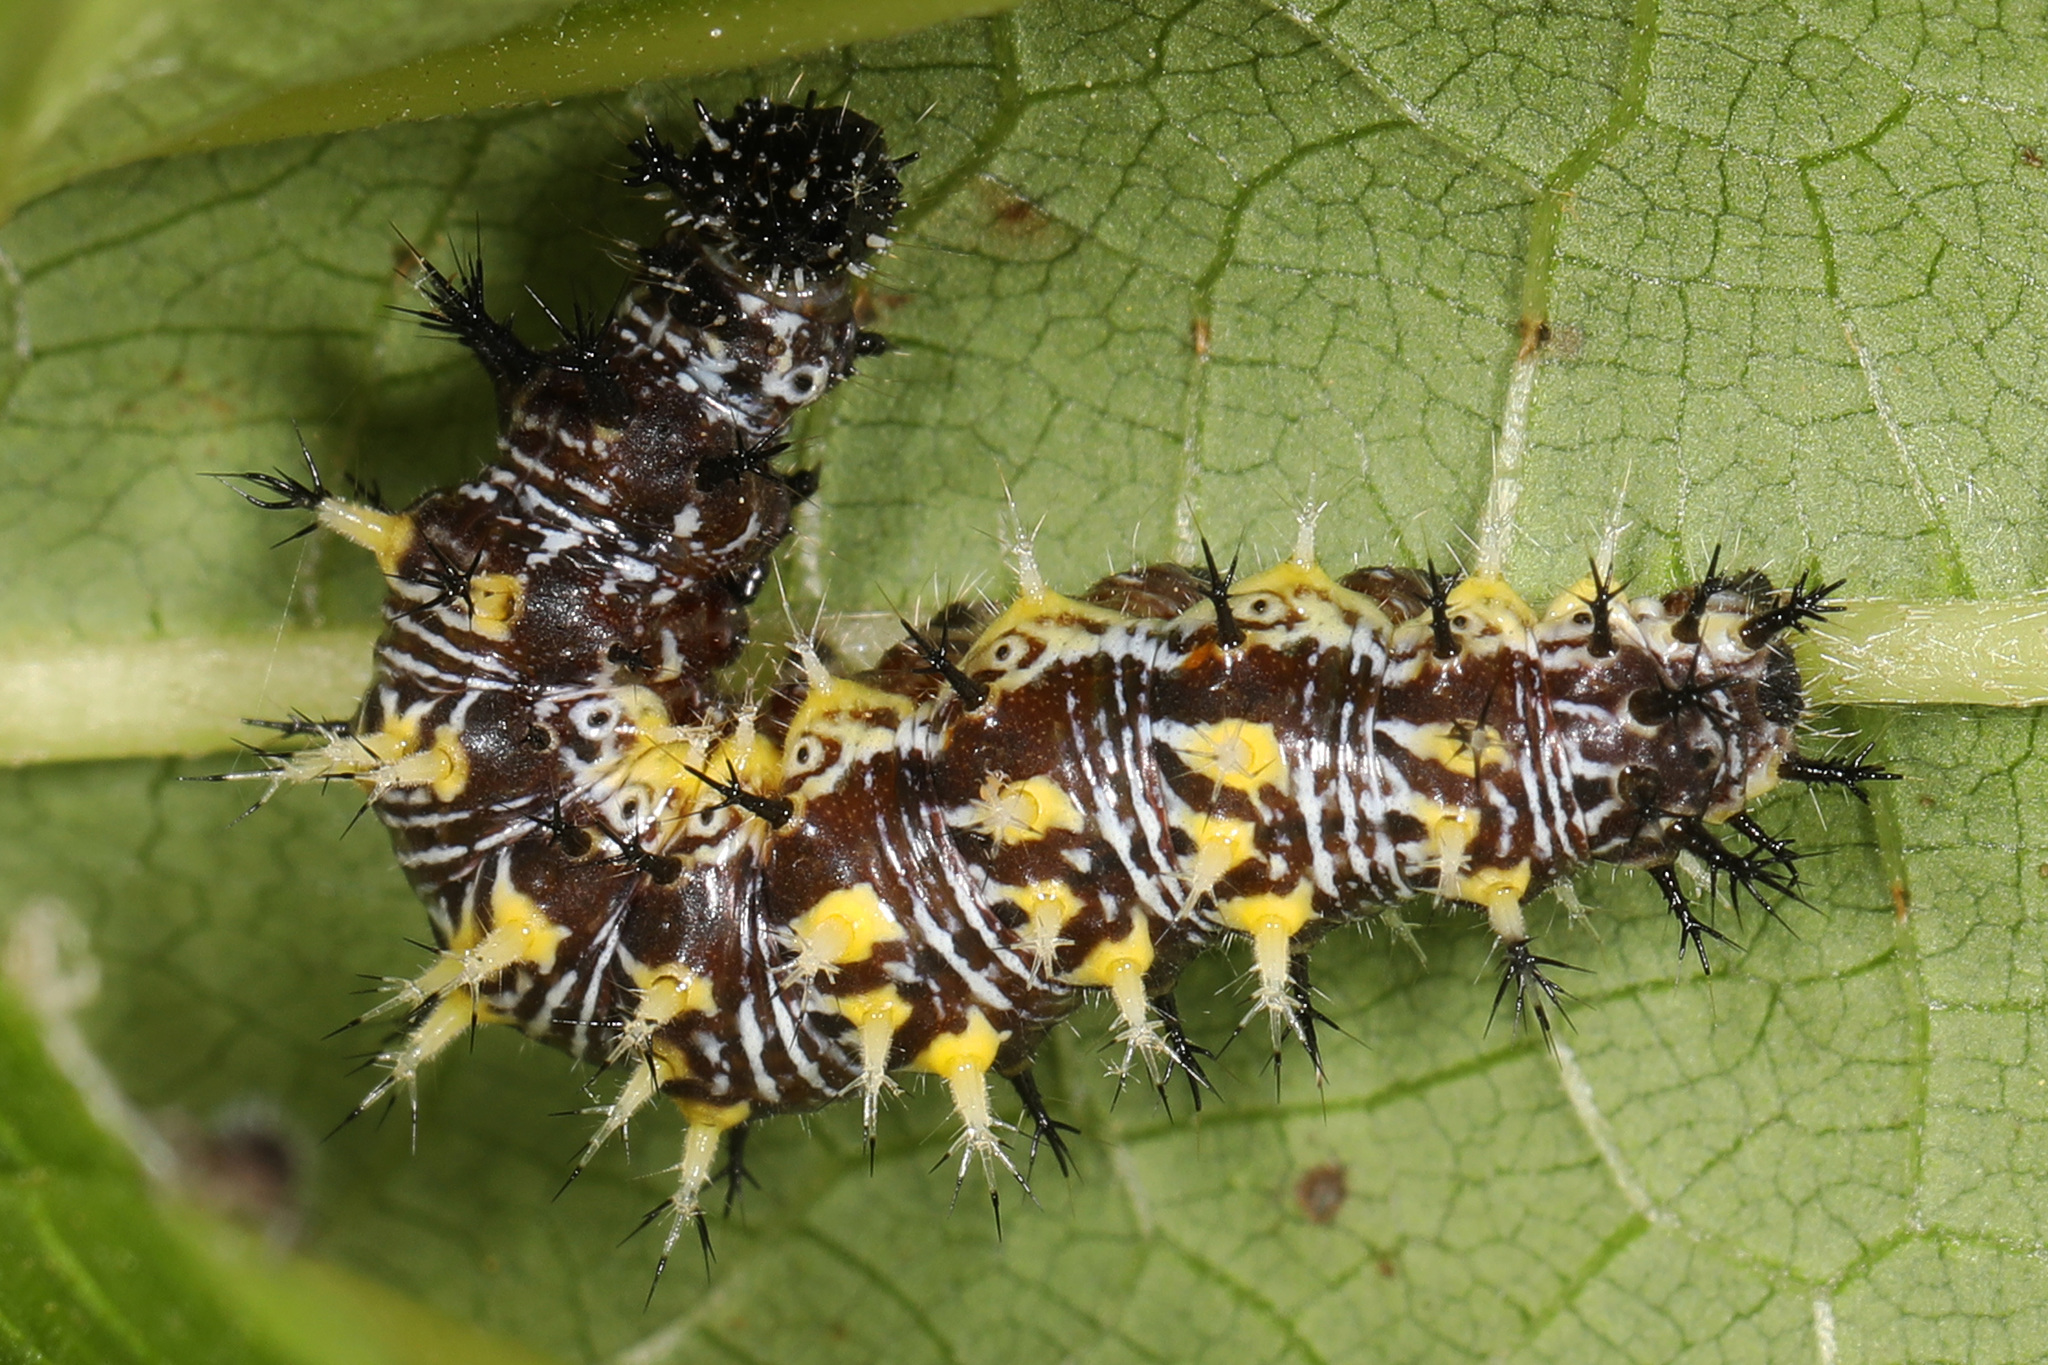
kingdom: Animalia
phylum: Arthropoda
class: Insecta
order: Lepidoptera
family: Nymphalidae
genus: Polygonia
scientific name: Polygonia comma
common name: Eastern comma
